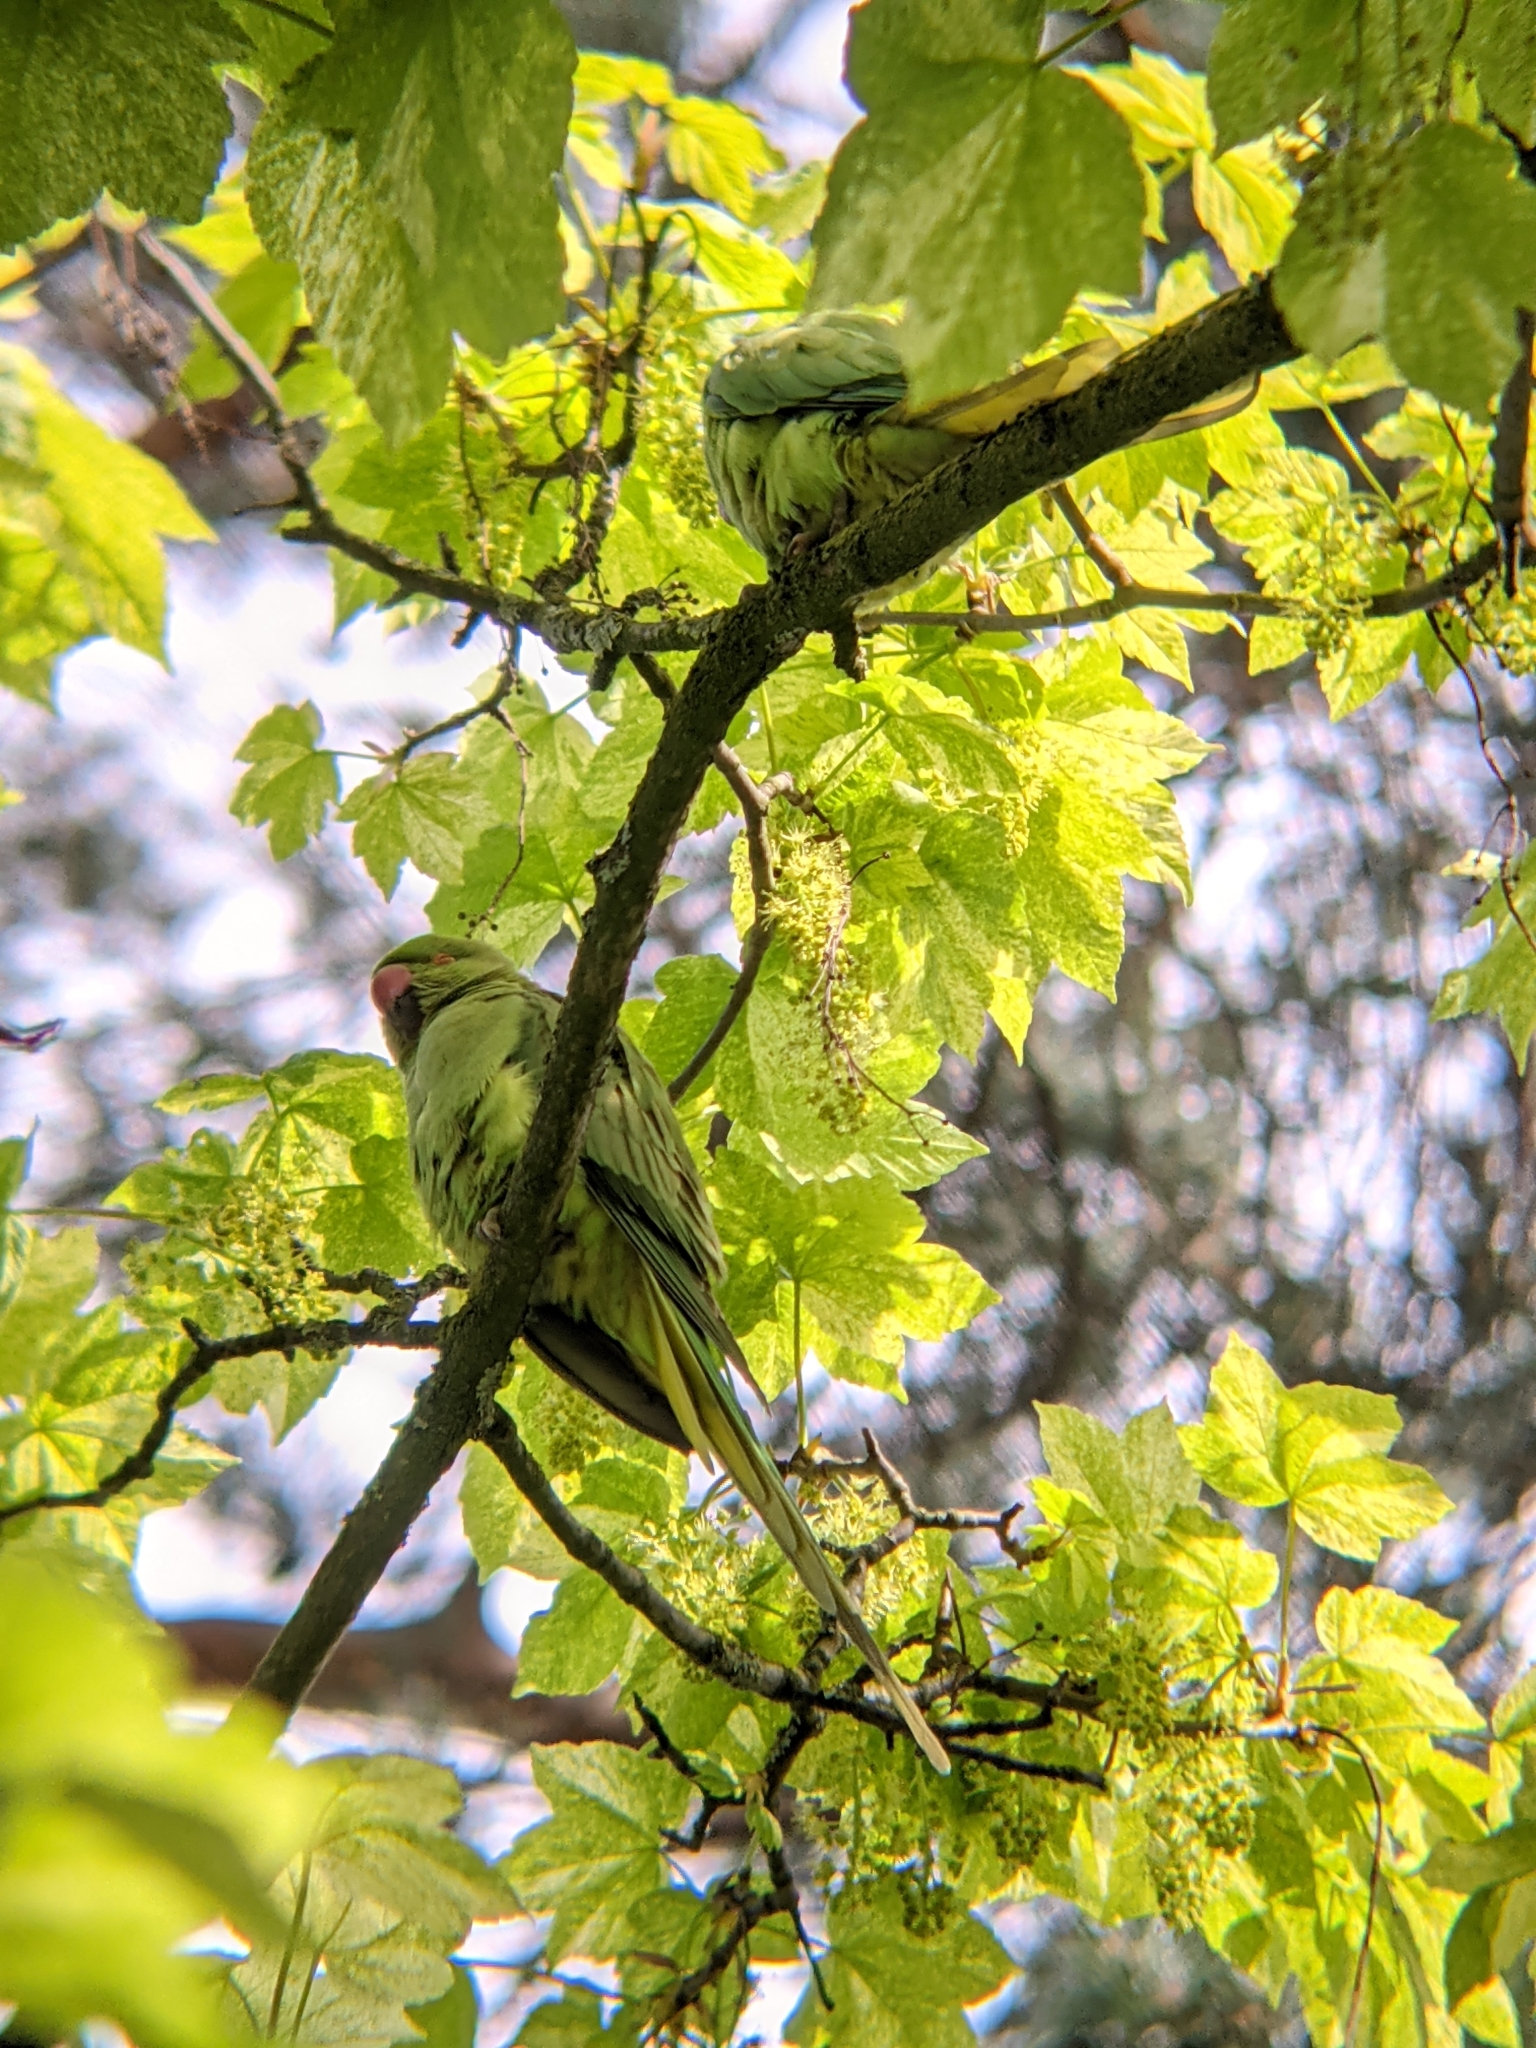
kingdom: Animalia
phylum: Chordata
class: Aves
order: Psittaciformes
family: Psittacidae
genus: Psittacula
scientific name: Psittacula krameri
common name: Rose-ringed parakeet
